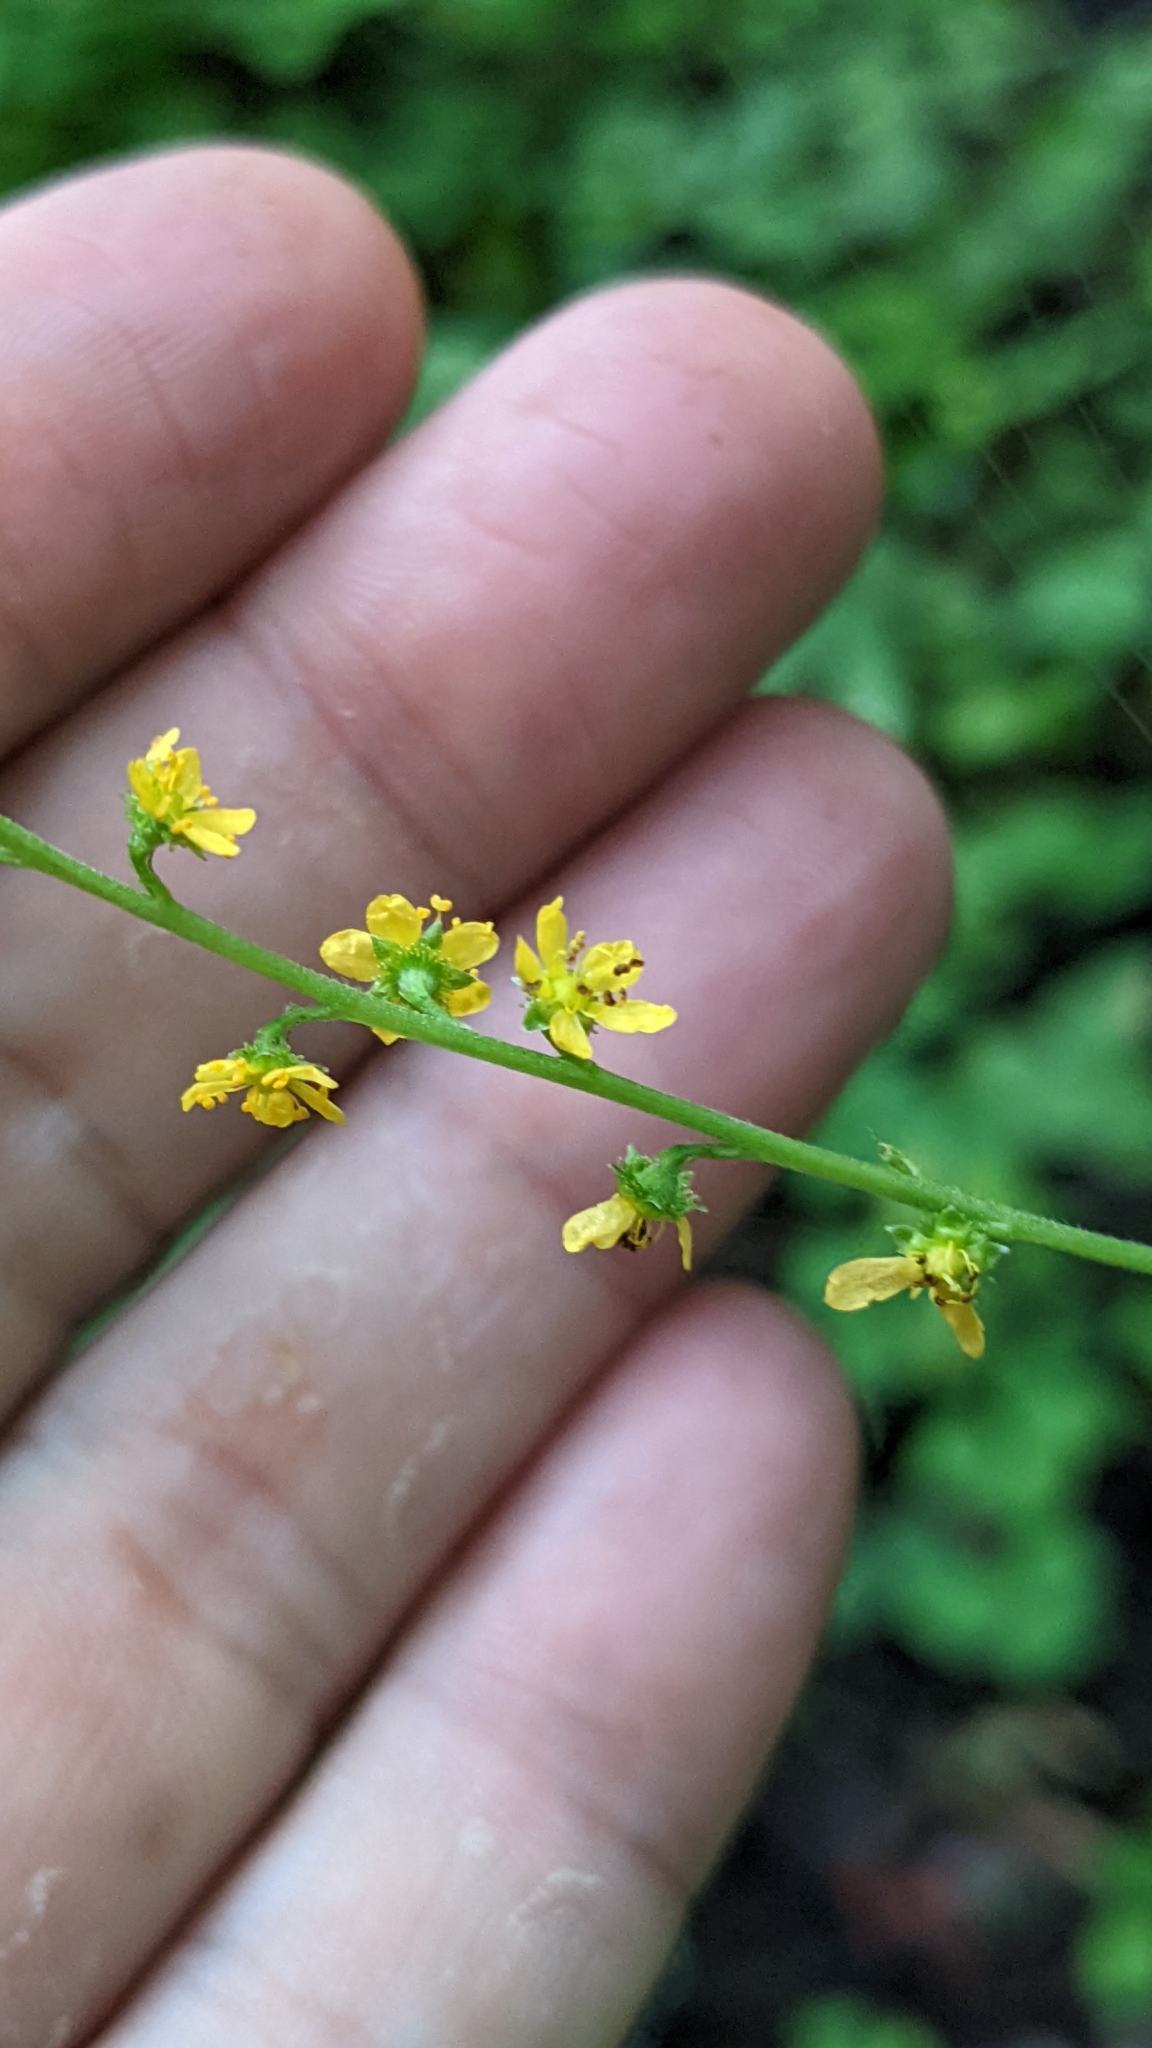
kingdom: Plantae
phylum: Tracheophyta
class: Magnoliopsida
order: Rosales
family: Rosaceae
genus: Agrimonia
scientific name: Agrimonia parviflora
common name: Harvest-lice
